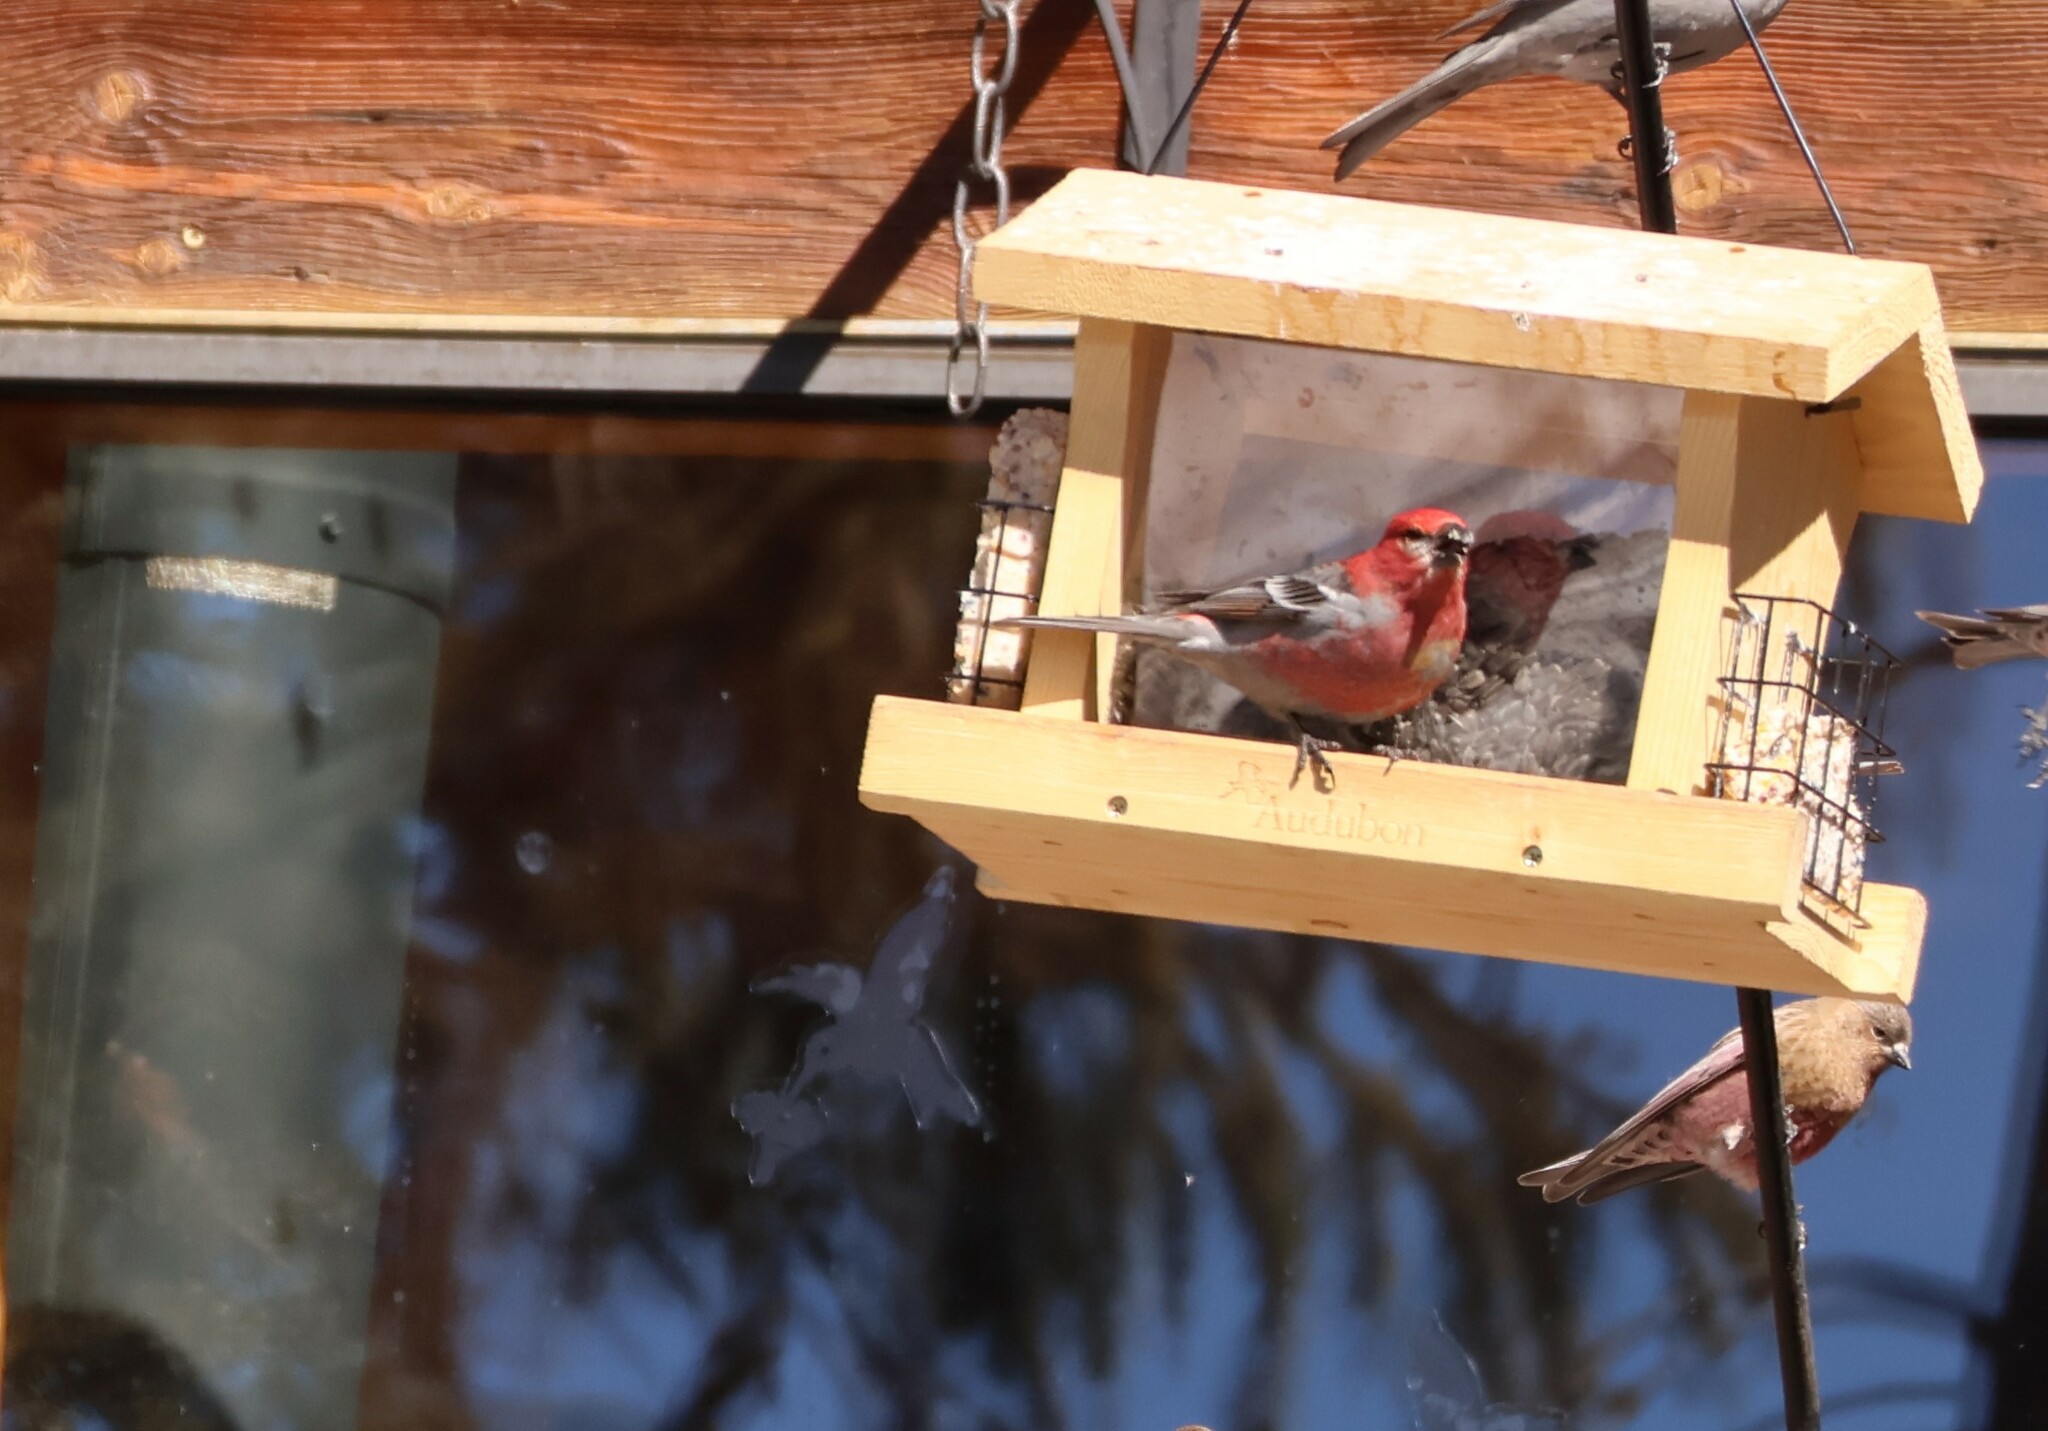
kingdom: Animalia
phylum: Chordata
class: Aves
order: Passeriformes
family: Fringillidae
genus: Pinicola
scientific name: Pinicola enucleator
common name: Pine grosbeak
